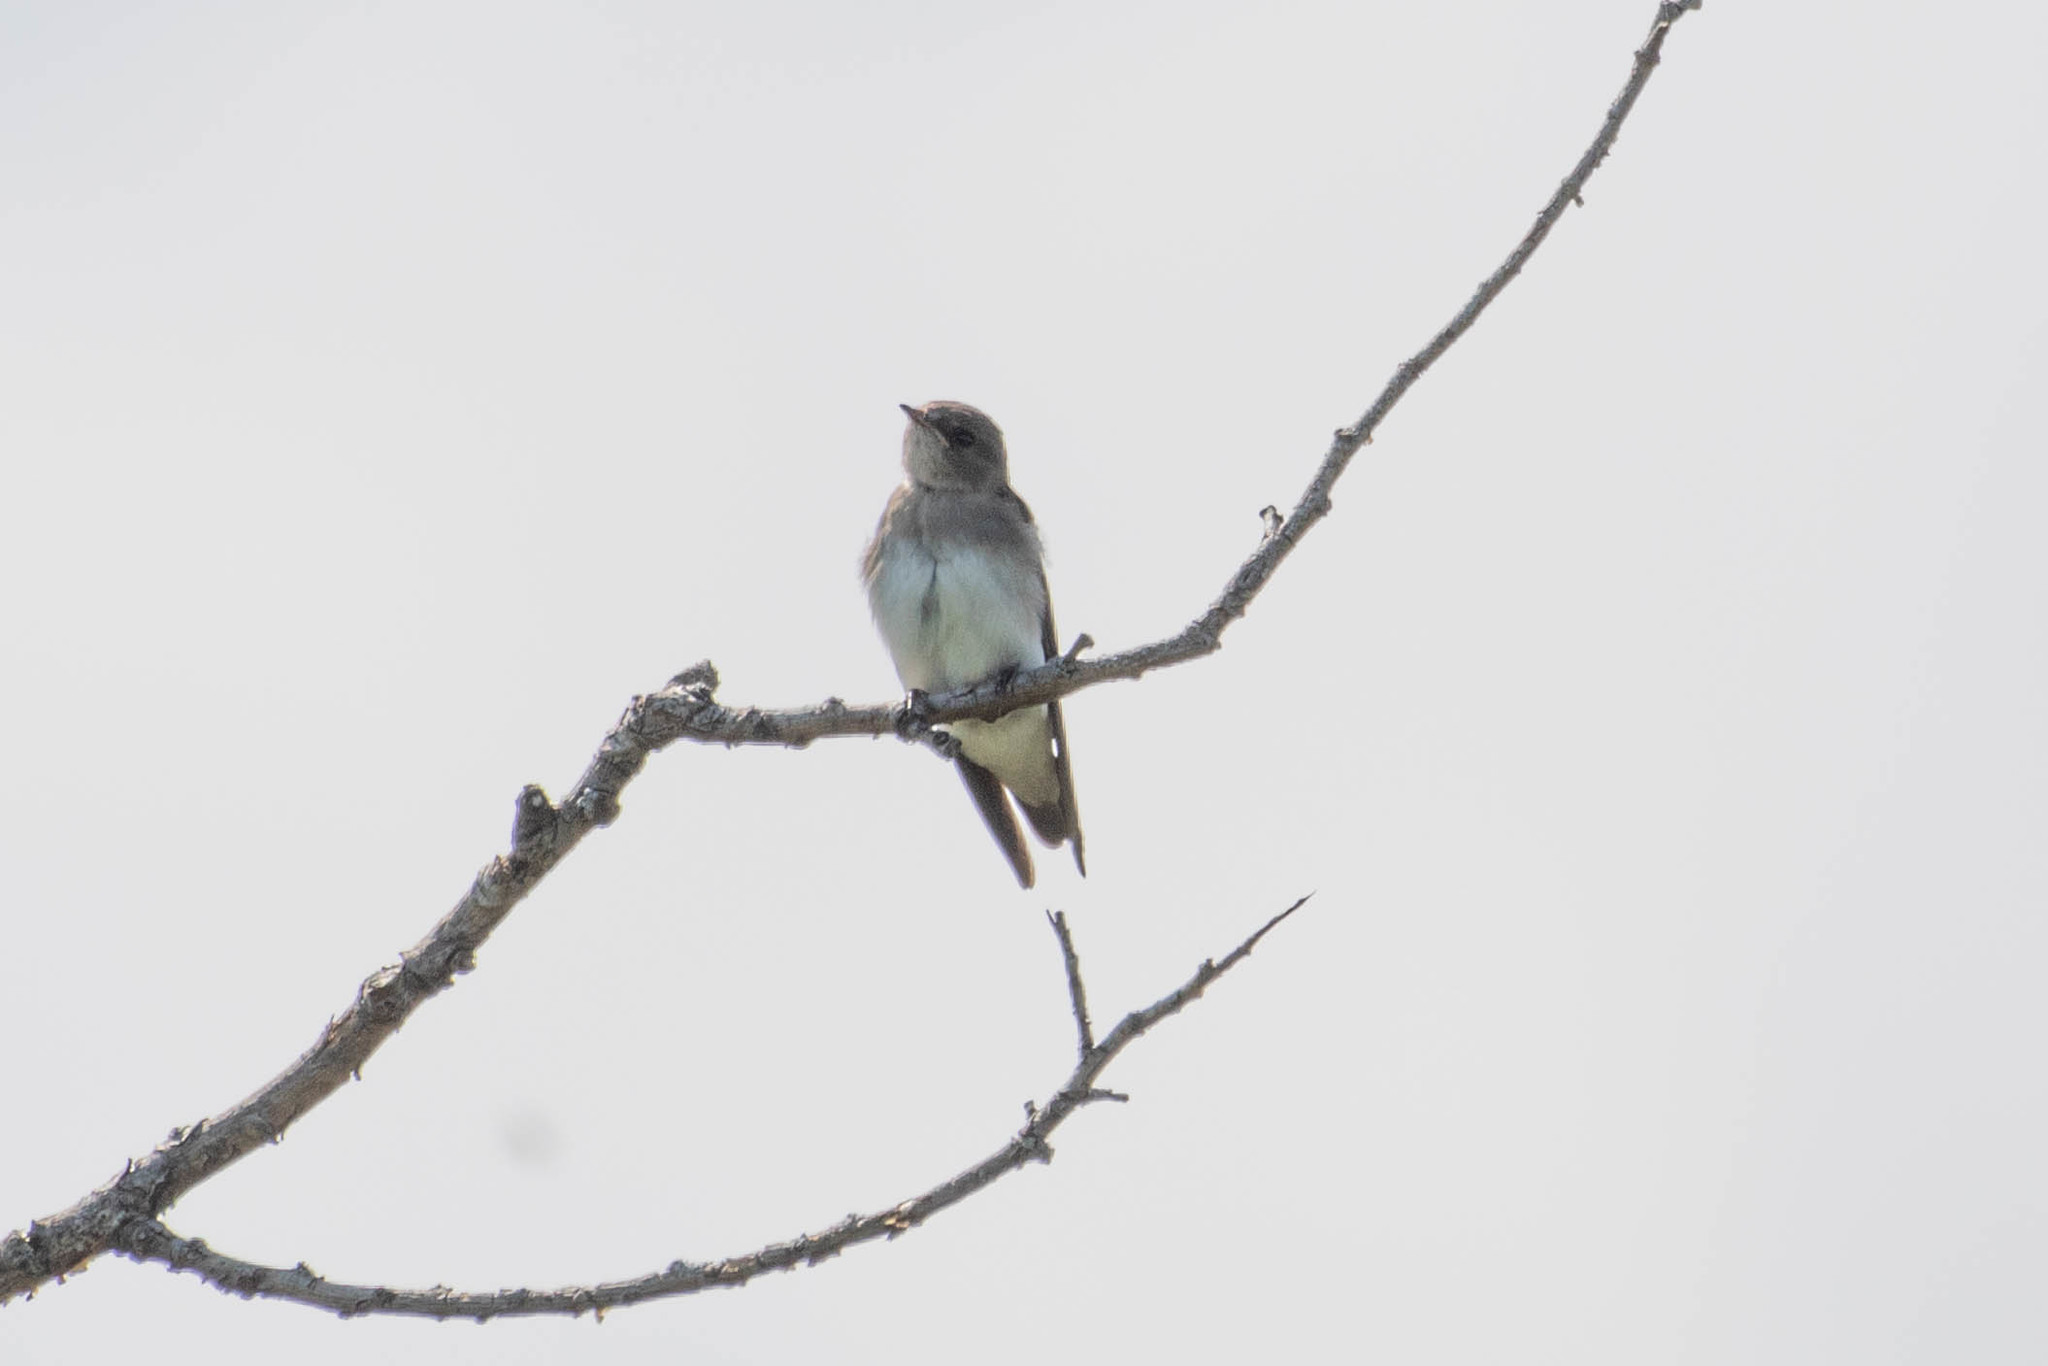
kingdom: Animalia
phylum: Chordata
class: Aves
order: Passeriformes
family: Hirundinidae
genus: Stelgidopteryx
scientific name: Stelgidopteryx serripennis
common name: Northern rough-winged swallow
